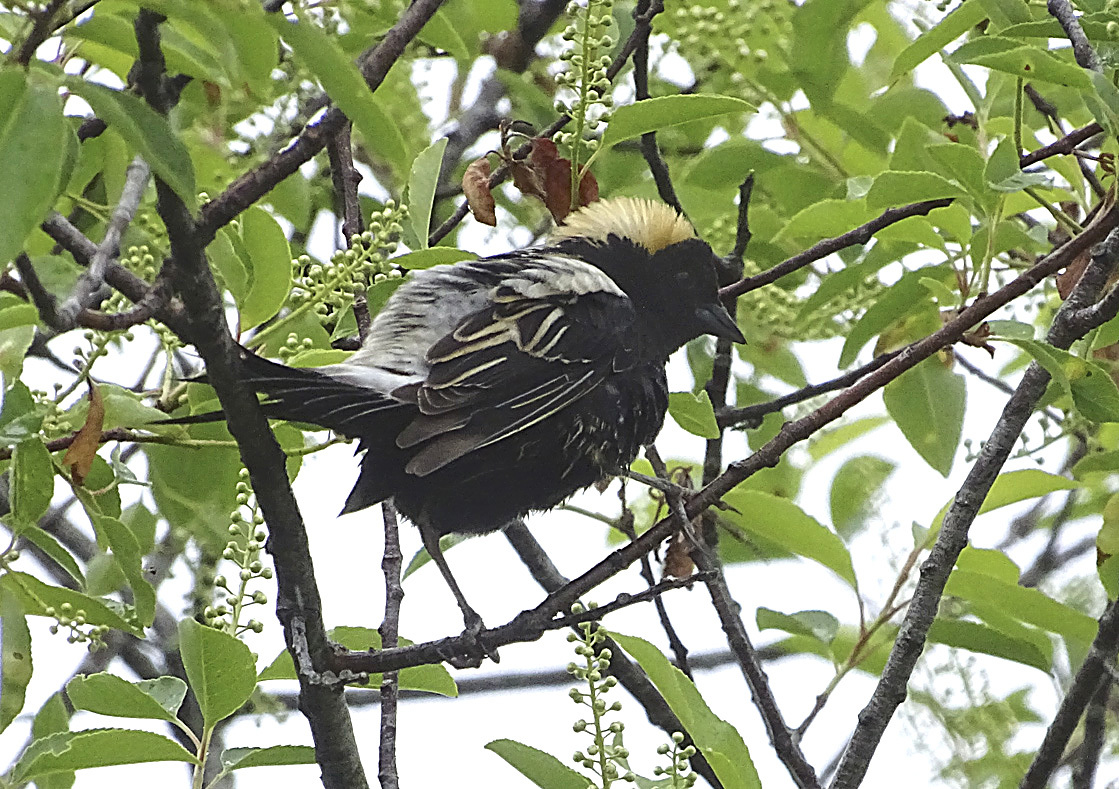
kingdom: Animalia
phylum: Chordata
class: Aves
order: Passeriformes
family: Icteridae
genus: Dolichonyx
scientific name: Dolichonyx oryzivorus
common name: Bobolink
